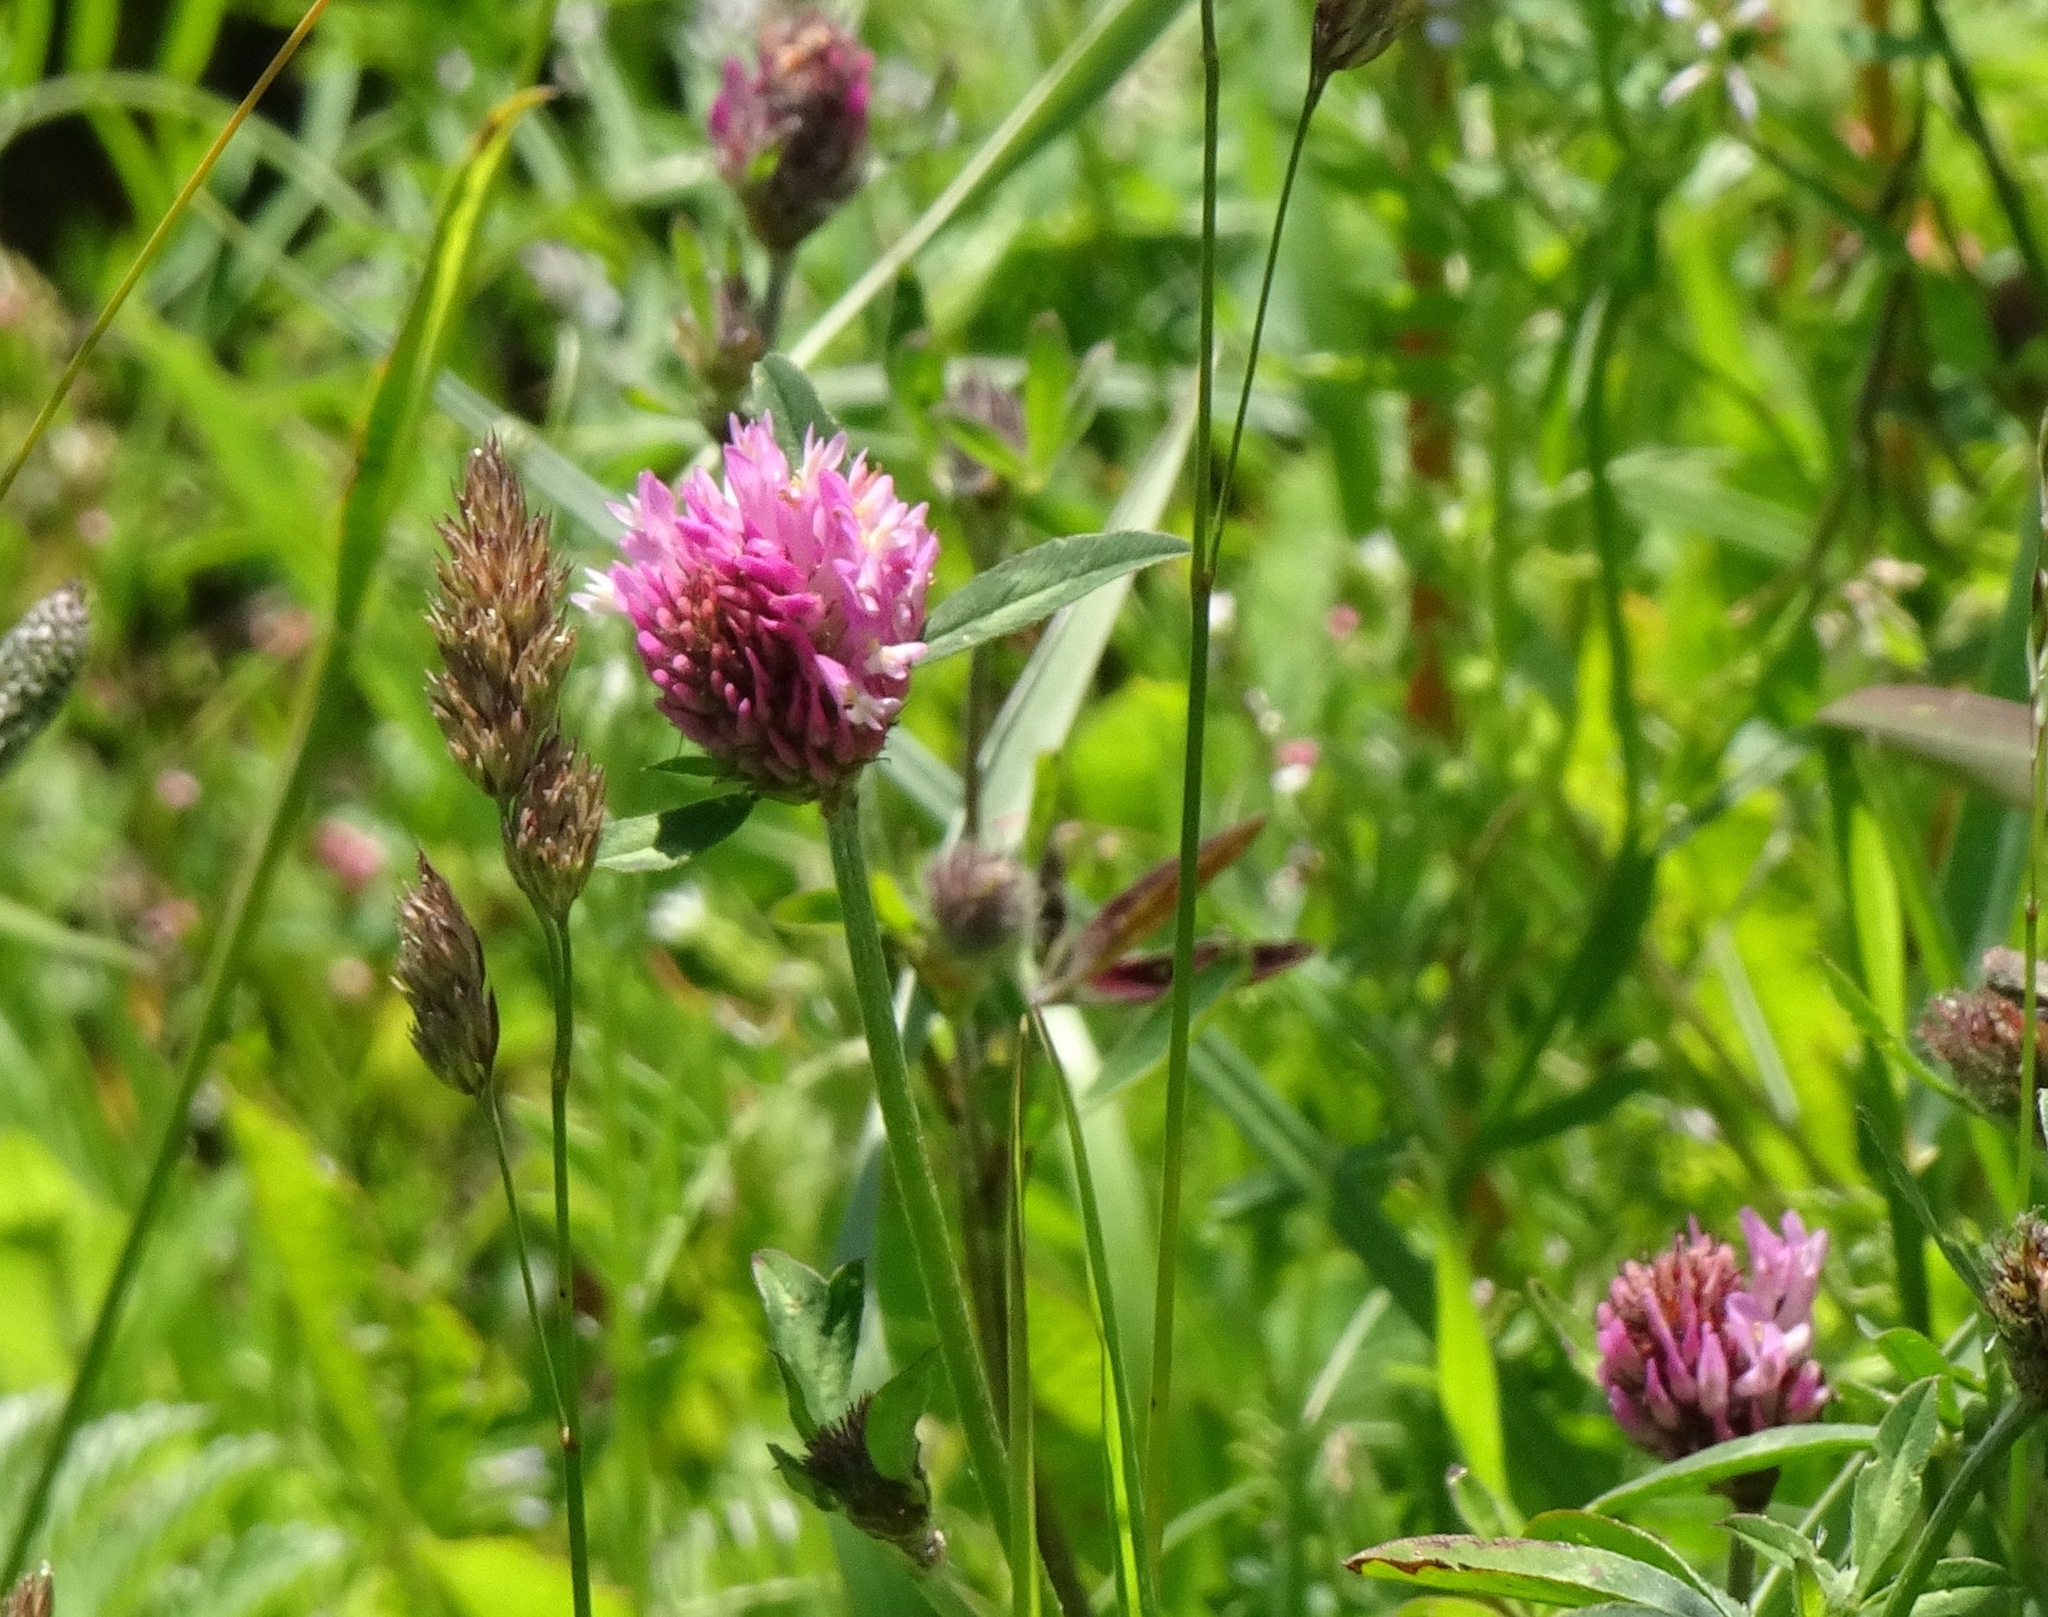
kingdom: Plantae
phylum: Tracheophyta
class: Magnoliopsida
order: Fabales
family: Fabaceae
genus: Trifolium
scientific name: Trifolium pratense
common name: Red clover
